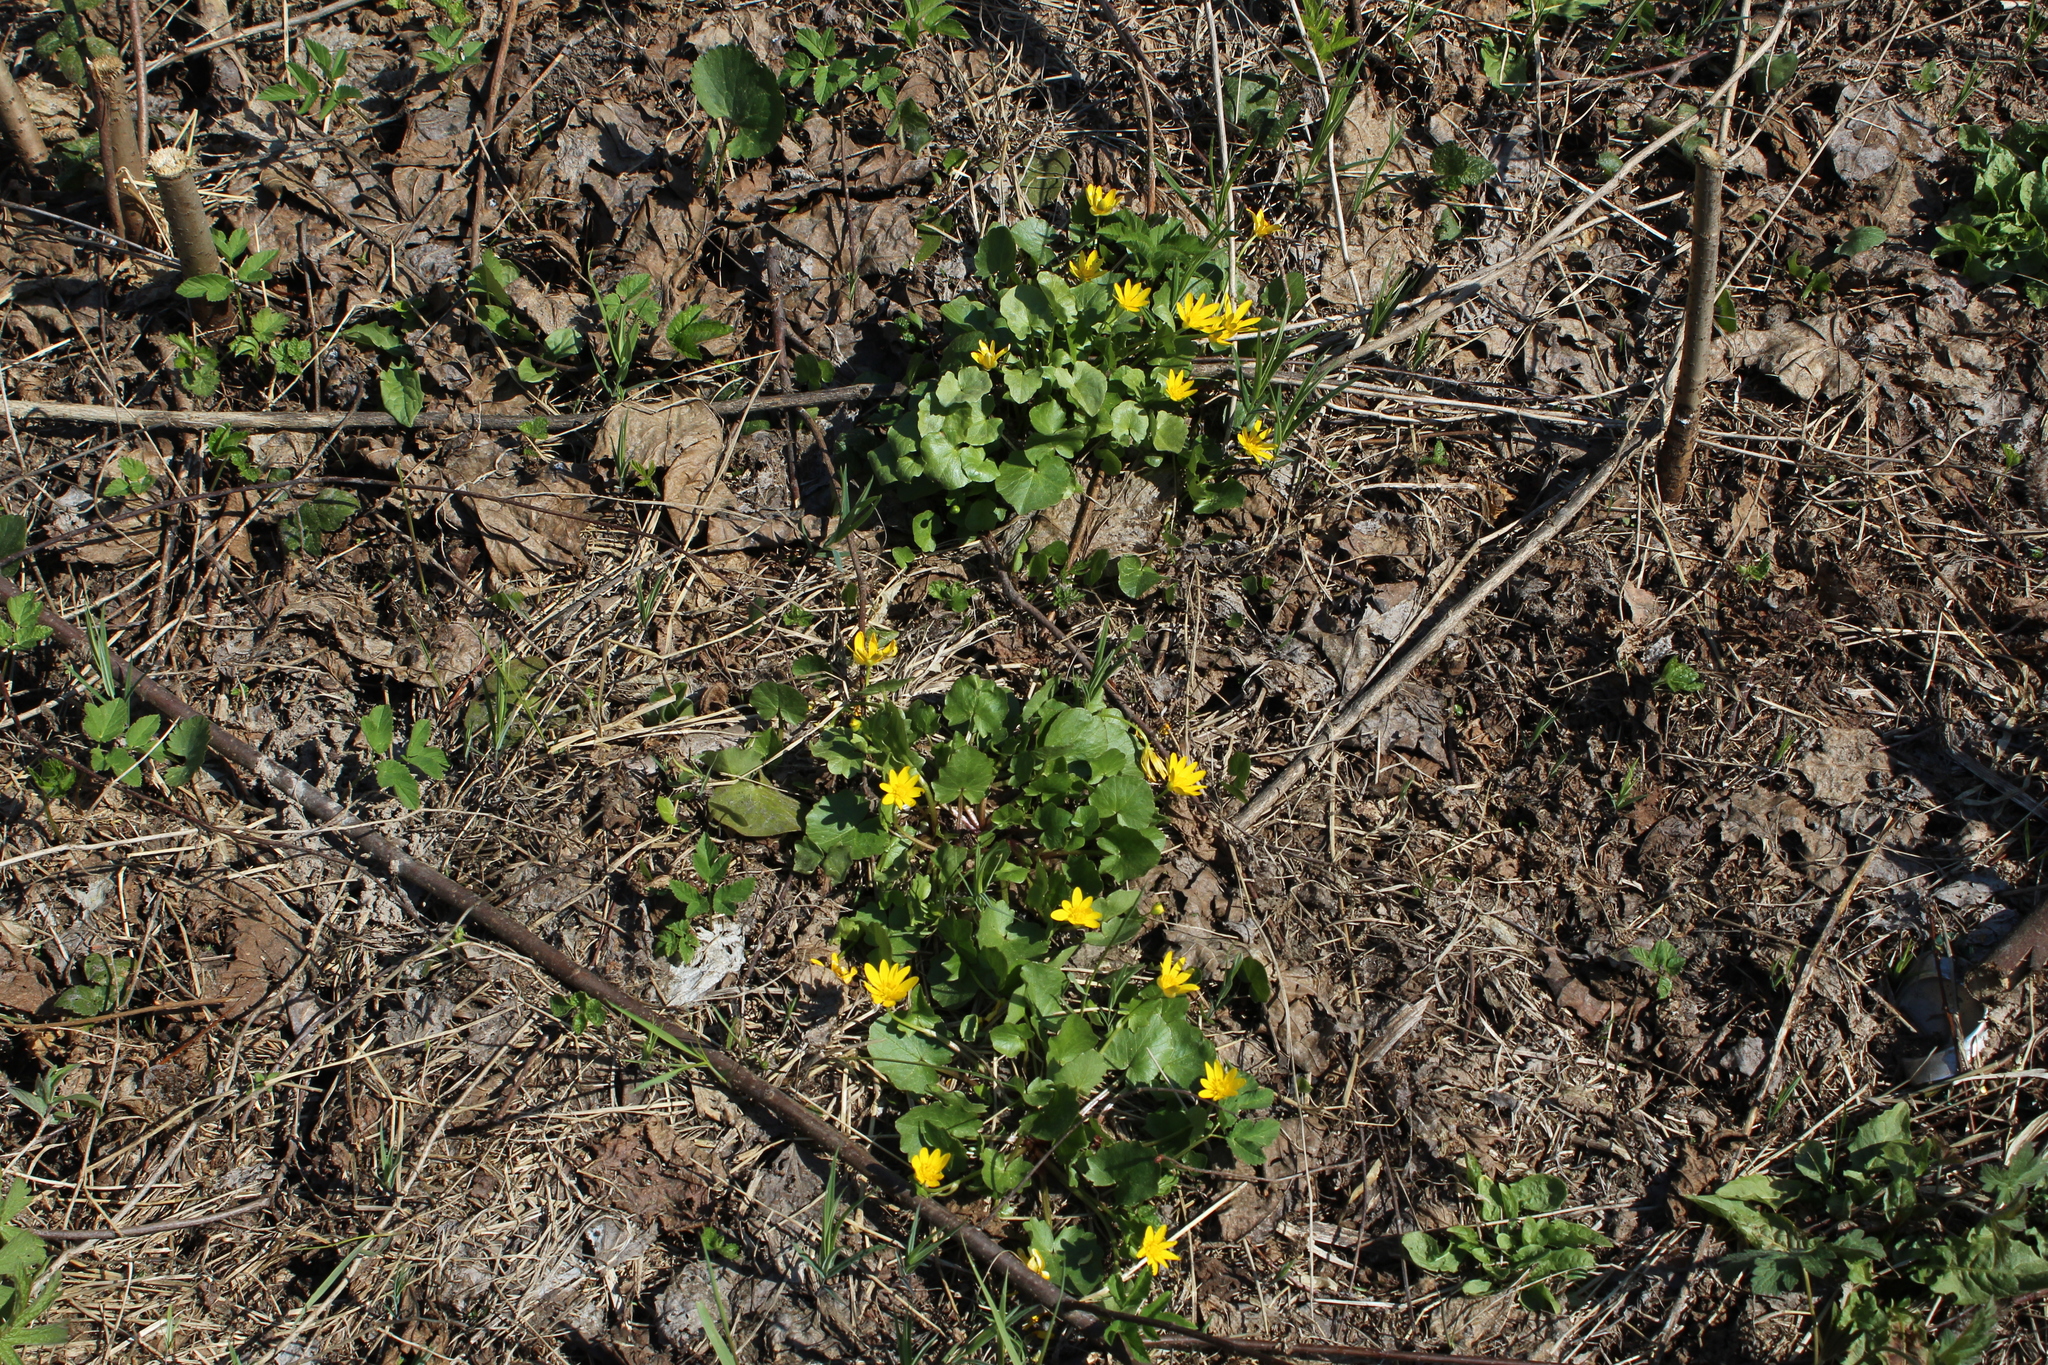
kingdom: Plantae
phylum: Tracheophyta
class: Magnoliopsida
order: Ranunculales
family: Ranunculaceae
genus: Ficaria
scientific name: Ficaria verna
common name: Lesser celandine
